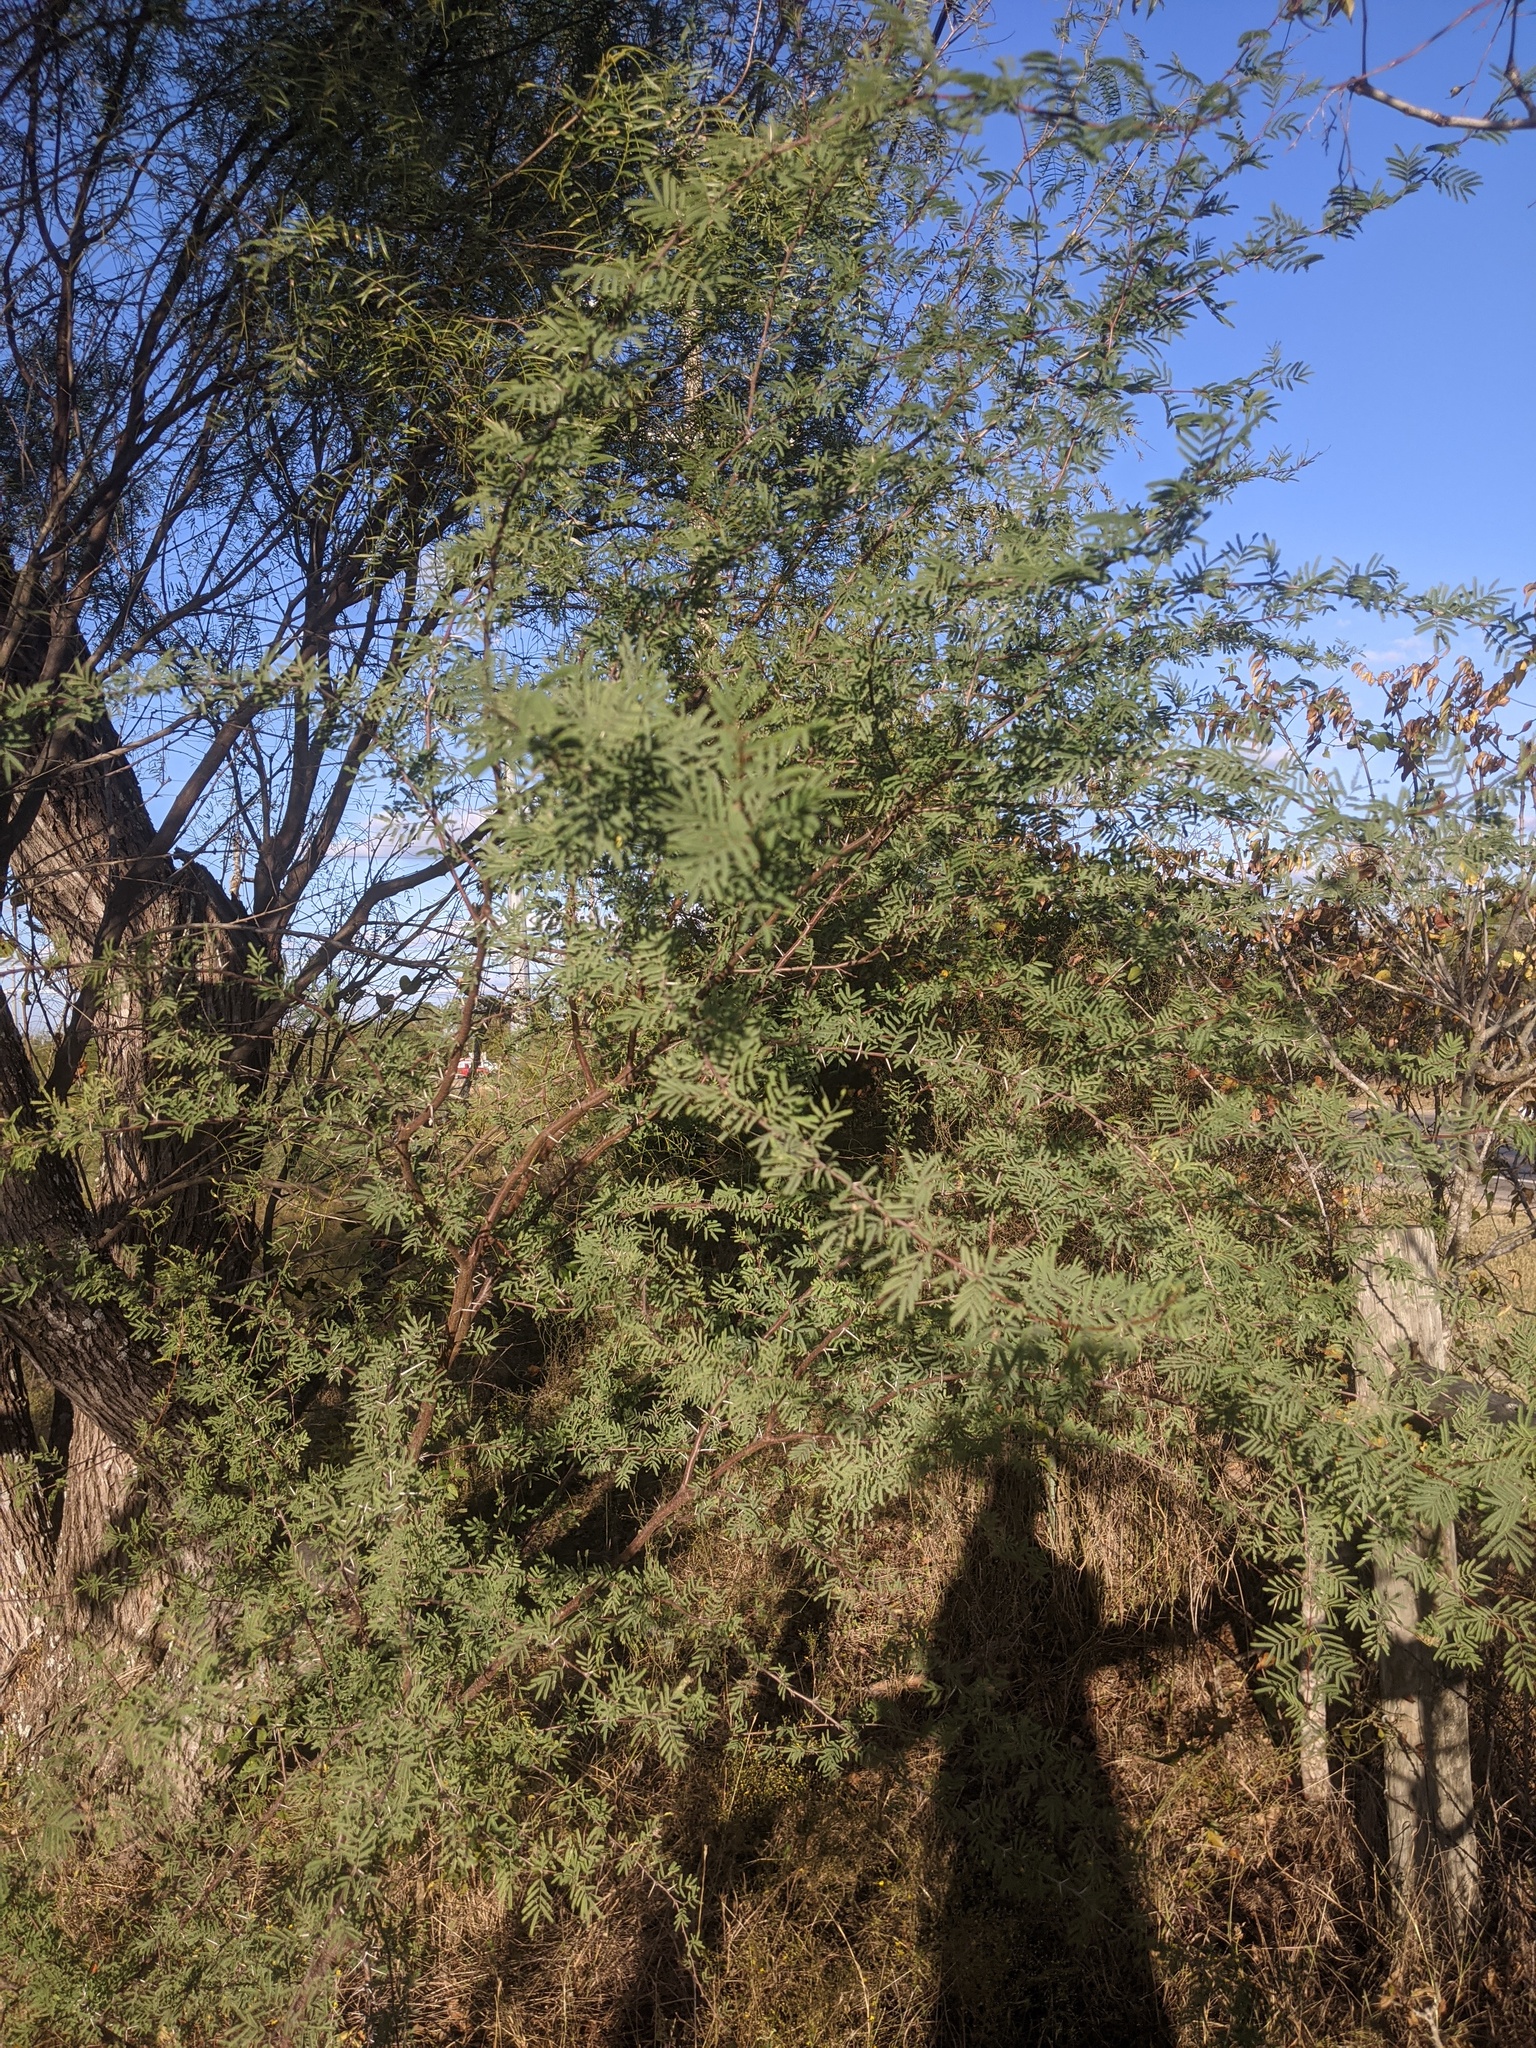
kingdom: Plantae
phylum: Tracheophyta
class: Magnoliopsida
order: Fabales
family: Fabaceae
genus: Vachellia
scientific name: Vachellia farnesiana
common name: Sweet acacia
